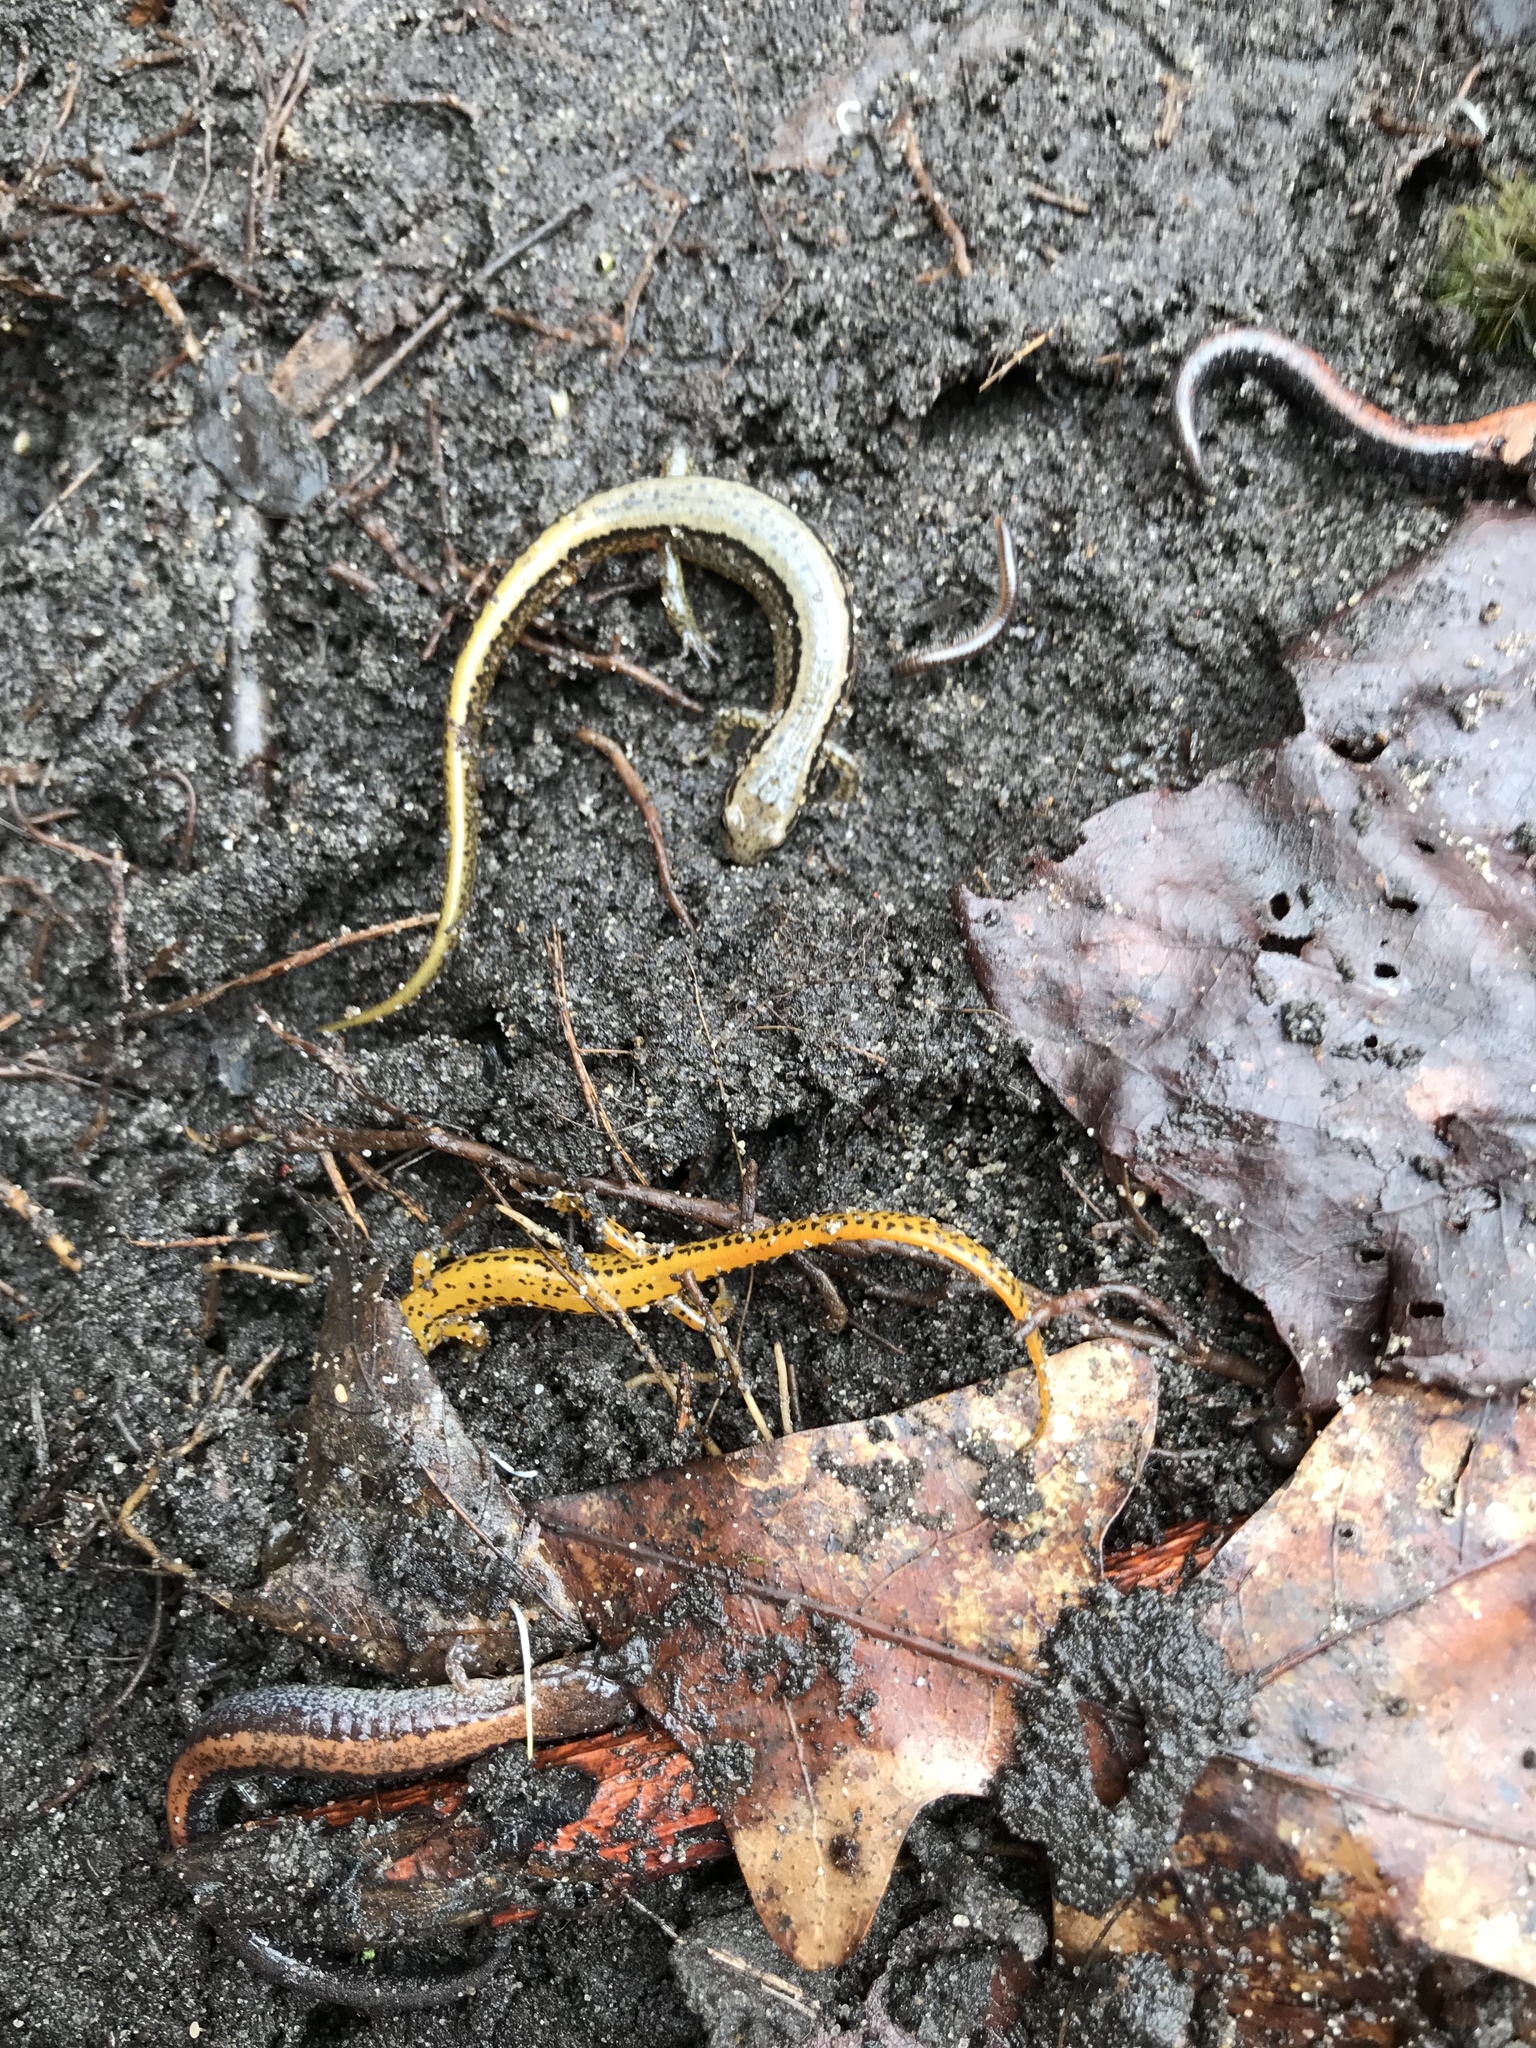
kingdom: Animalia
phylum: Chordata
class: Amphibia
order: Caudata
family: Plethodontidae
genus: Eurycea
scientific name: Eurycea bislineata
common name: Northern two-lined salamander
